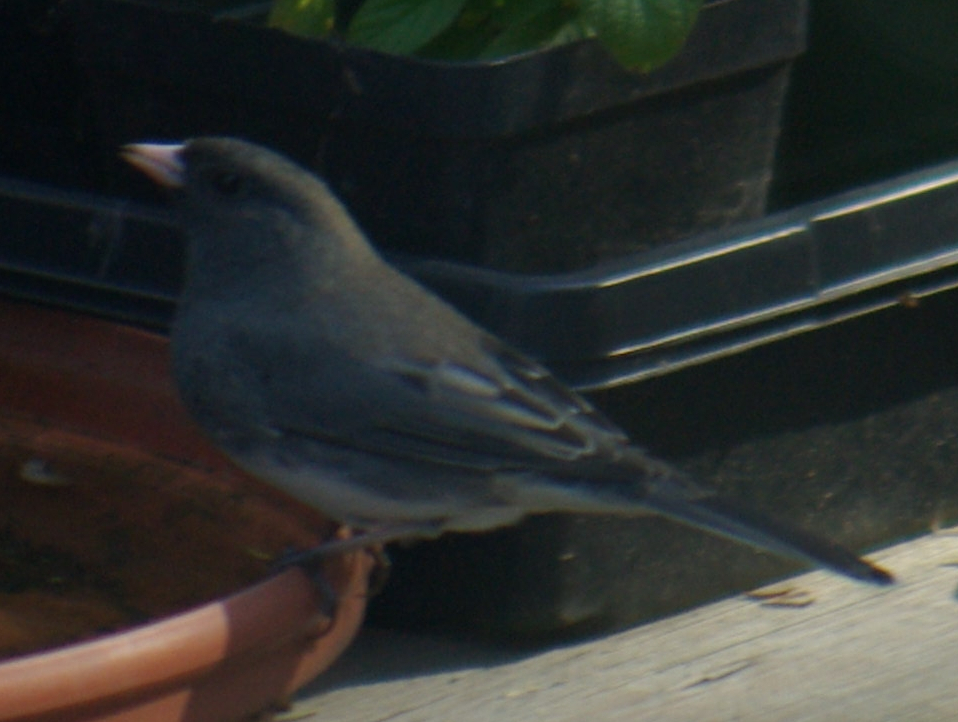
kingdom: Animalia
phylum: Chordata
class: Aves
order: Passeriformes
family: Passerellidae
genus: Junco
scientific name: Junco hyemalis
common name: Dark-eyed junco
